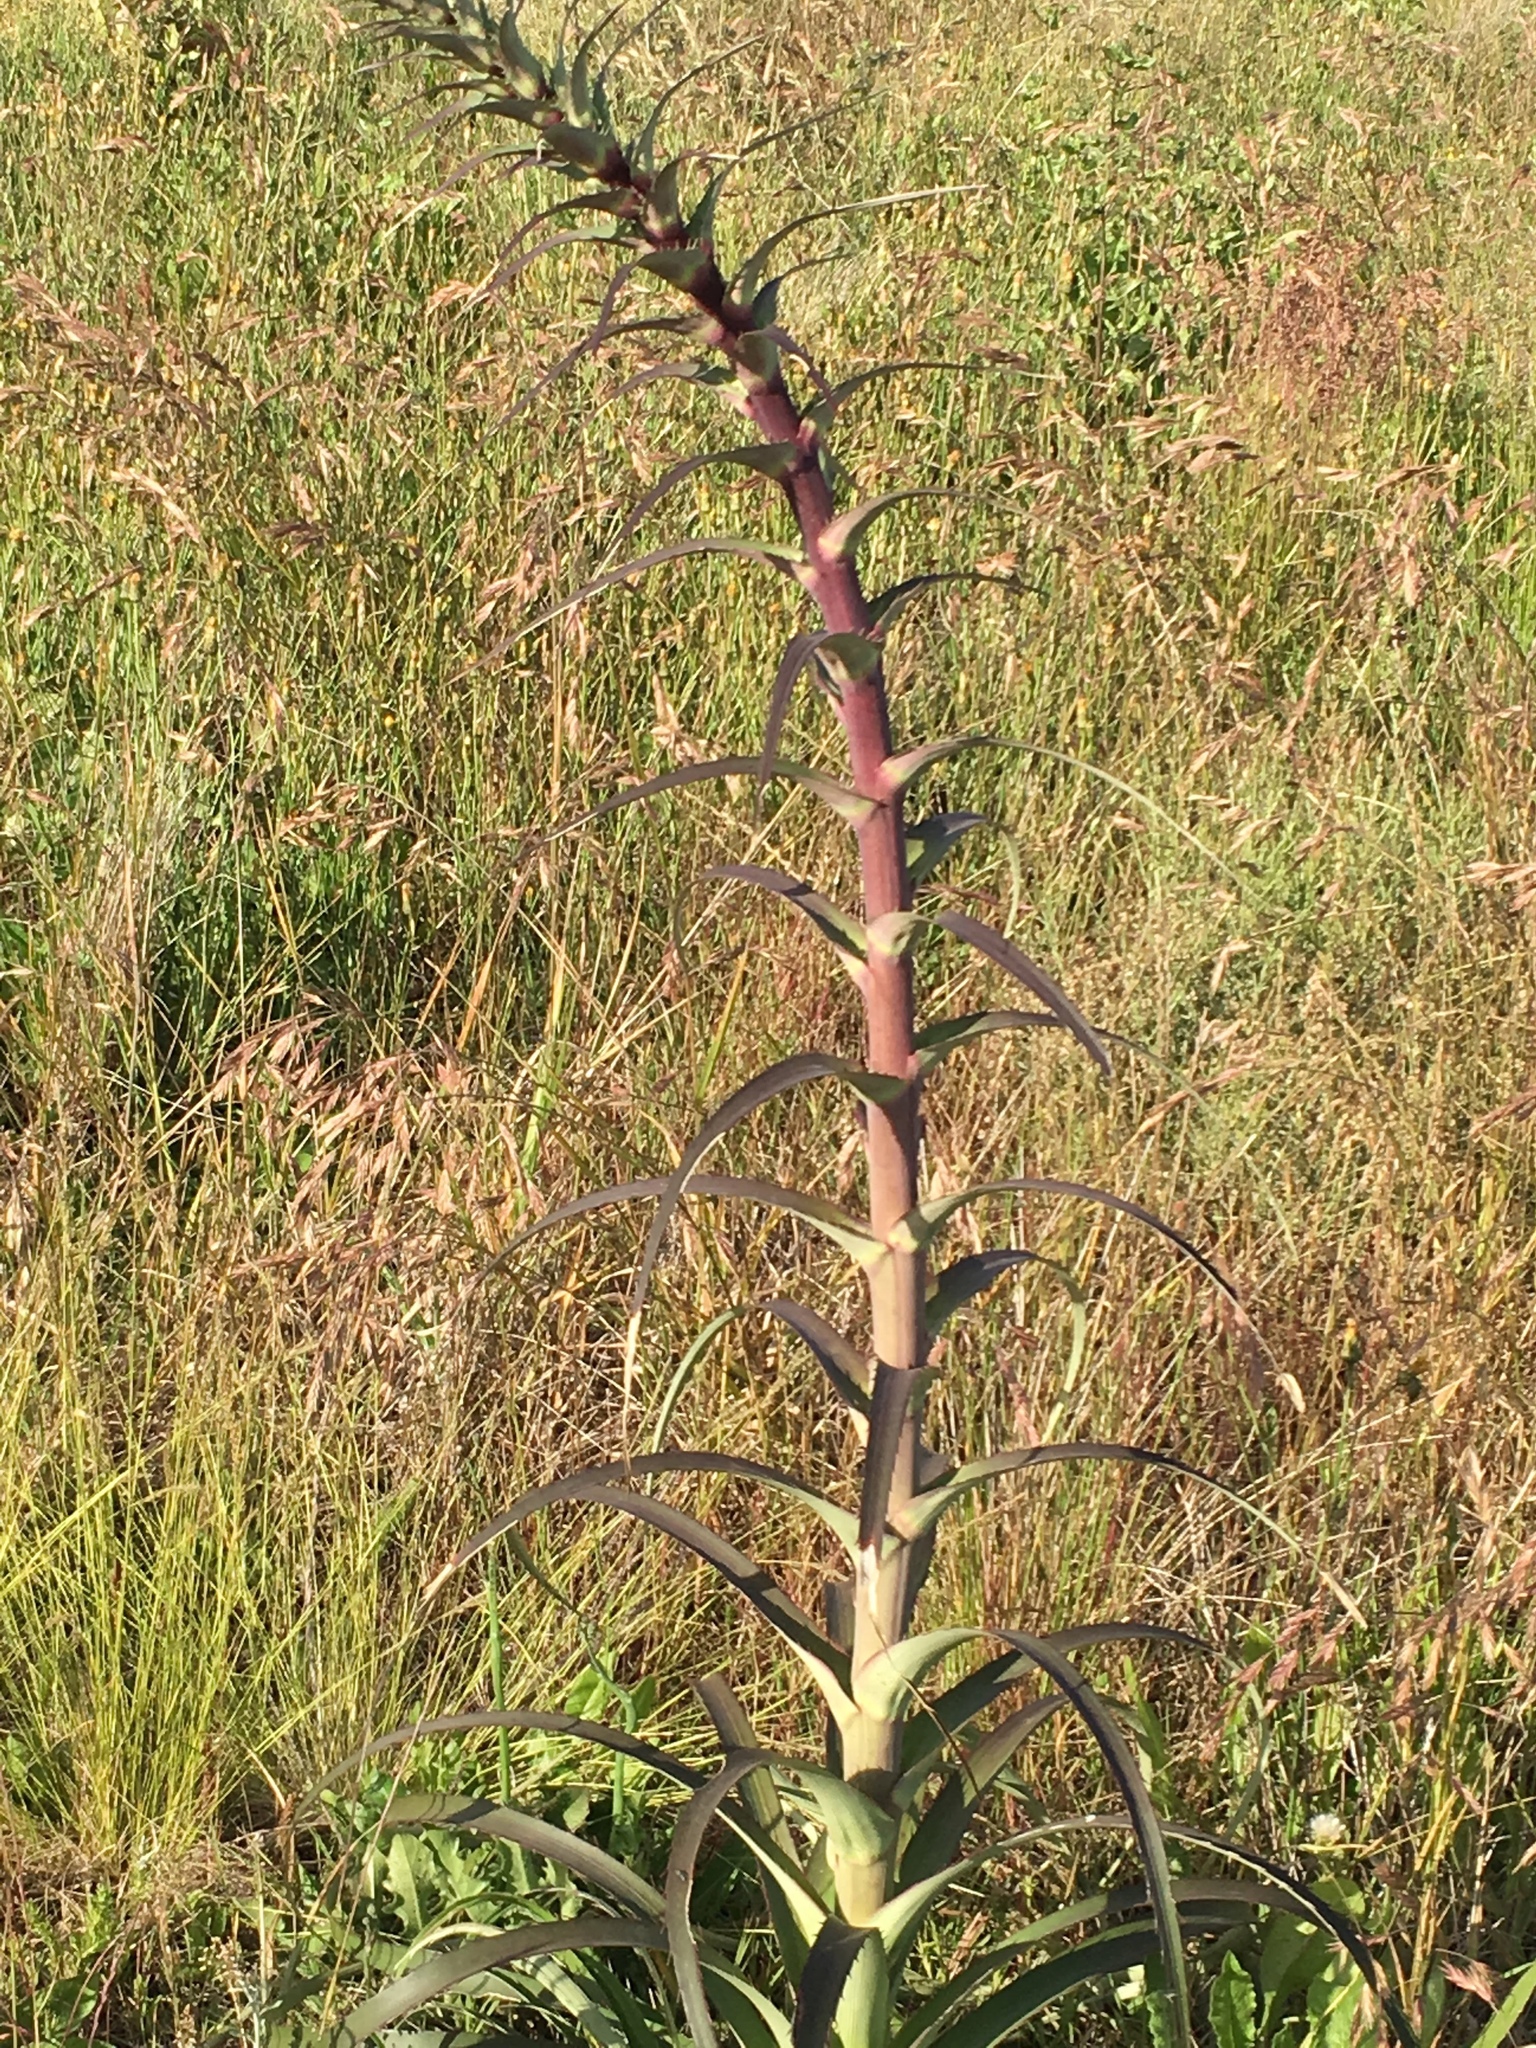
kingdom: Plantae
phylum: Tracheophyta
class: Magnoliopsida
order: Apiales
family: Apiaceae
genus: Eryngium
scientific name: Eryngium humboldtii
